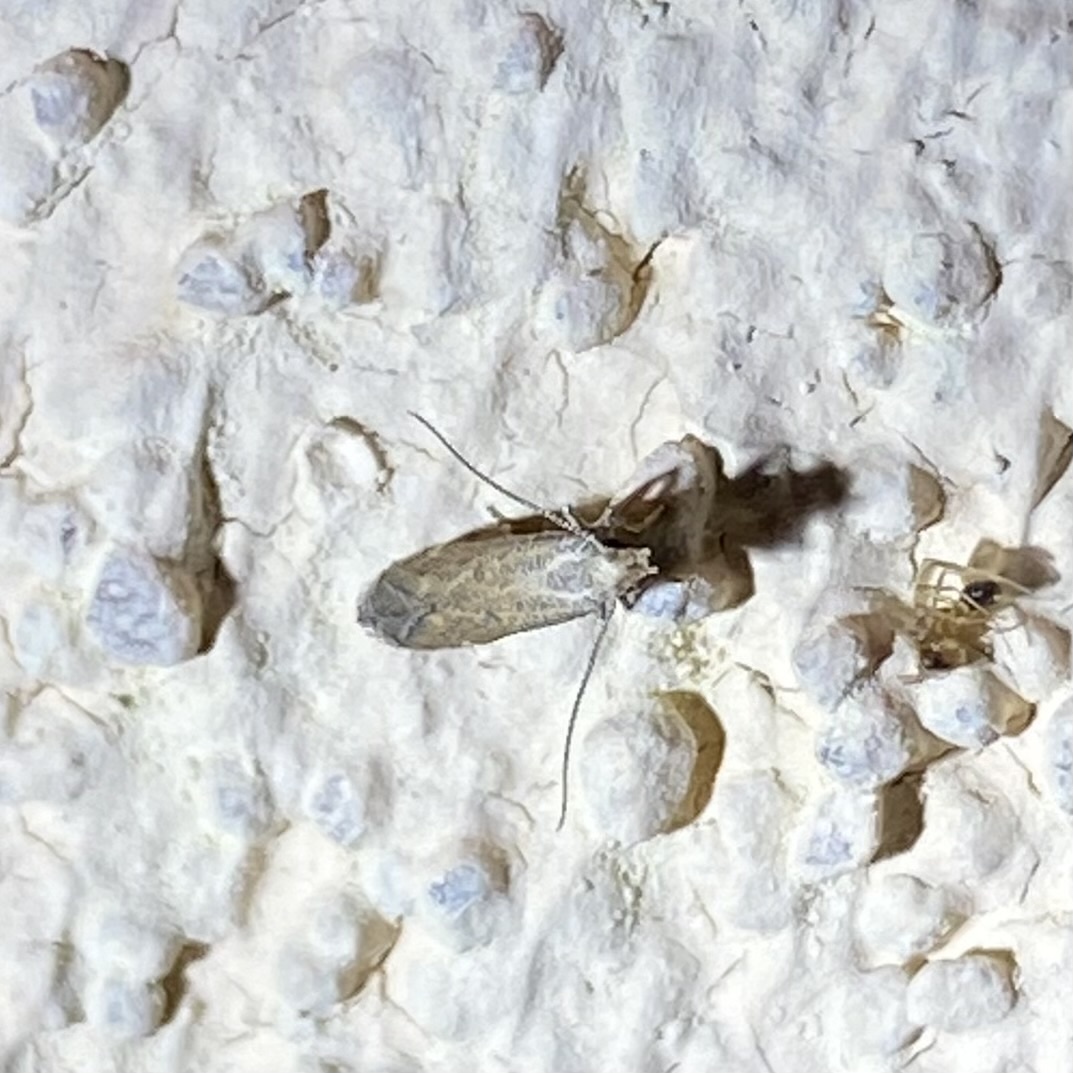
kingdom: Animalia
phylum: Arthropoda
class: Insecta
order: Lepidoptera
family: Gelechiidae
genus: Isophrictis
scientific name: Isophrictis
